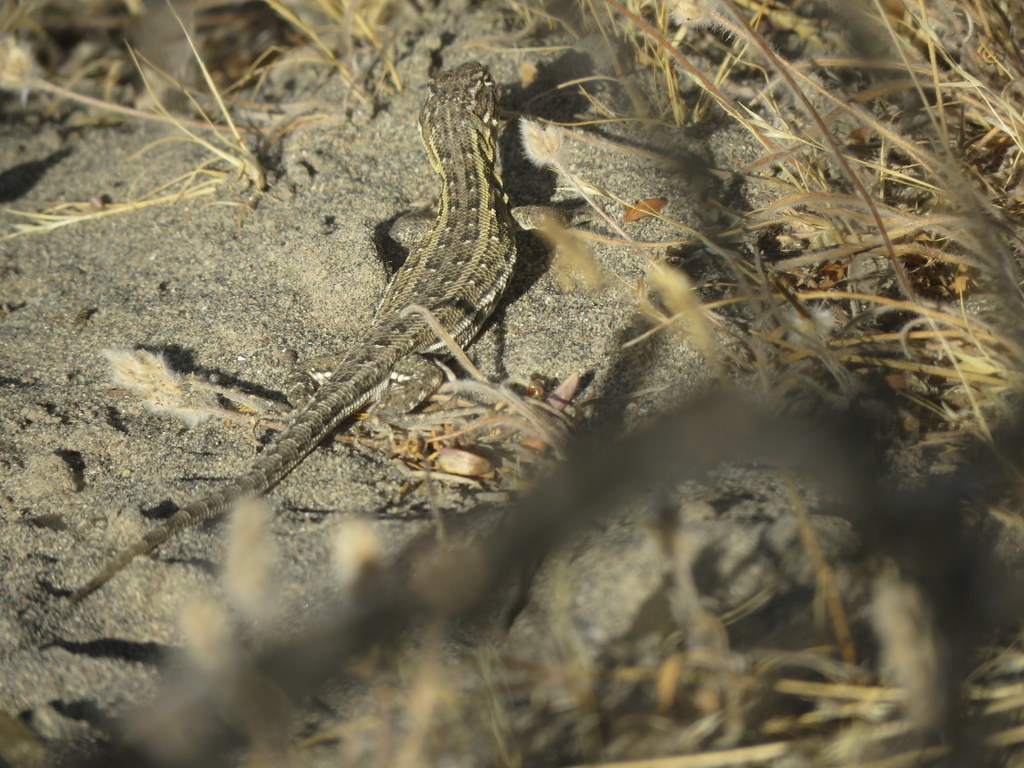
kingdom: Animalia
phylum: Chordata
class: Squamata
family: Liolaemidae
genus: Liolaemus
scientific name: Liolaemus darwinii
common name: Darwin's tree iguana
